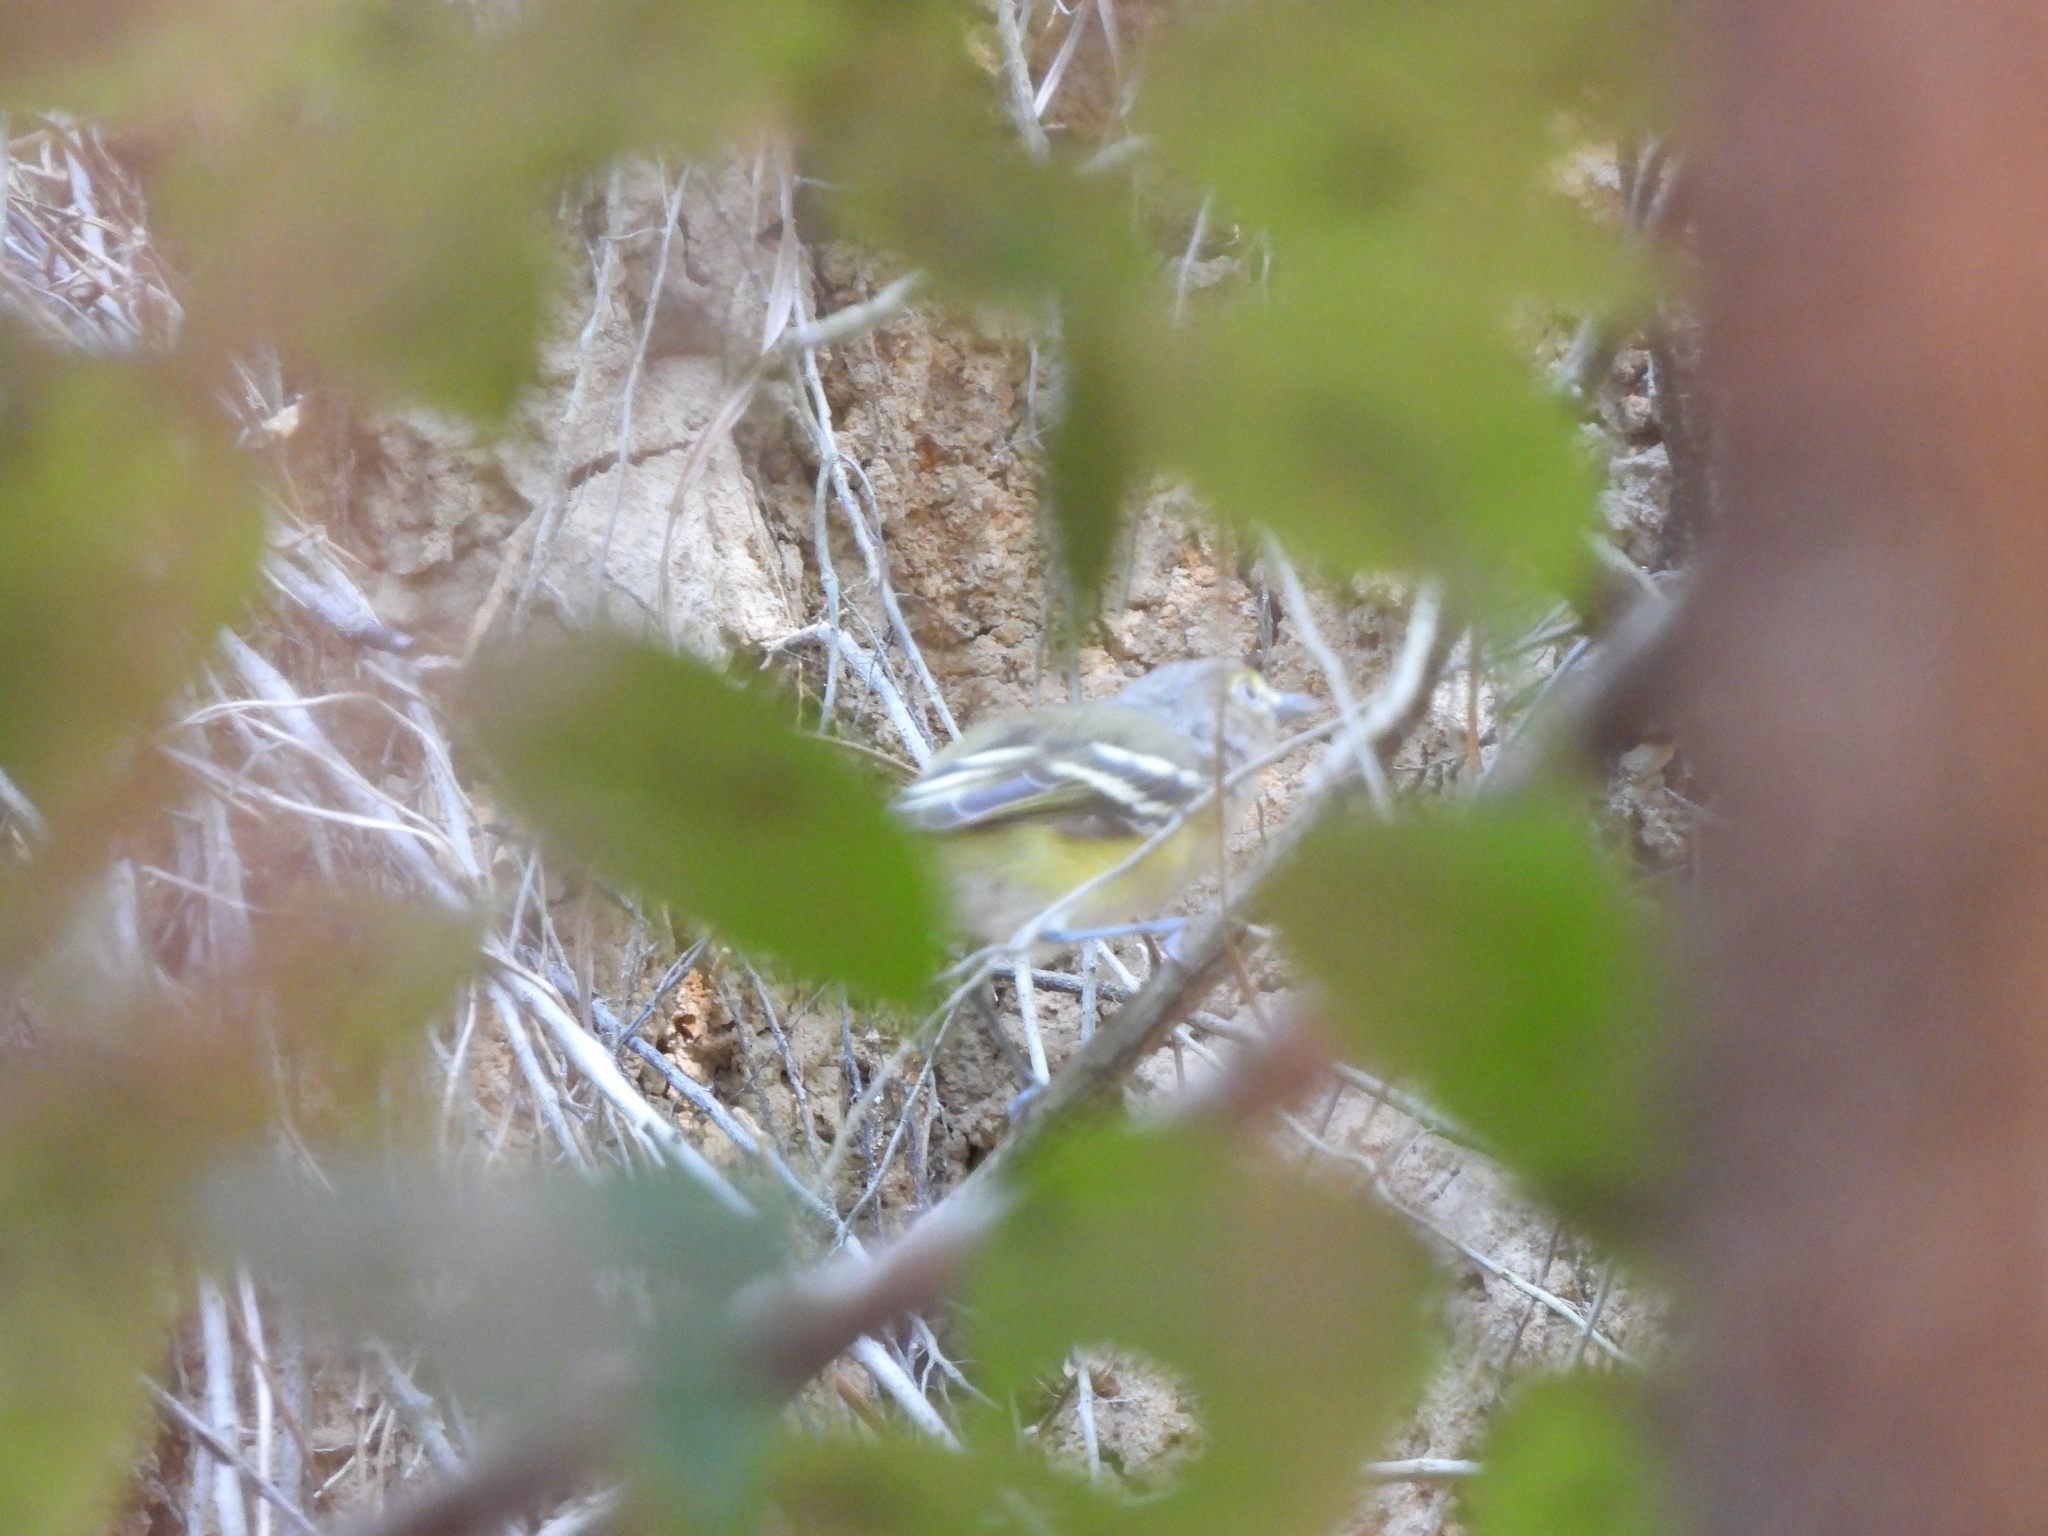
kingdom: Animalia
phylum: Chordata
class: Aves
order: Passeriformes
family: Vireonidae
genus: Vireo
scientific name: Vireo griseus
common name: White-eyed vireo
